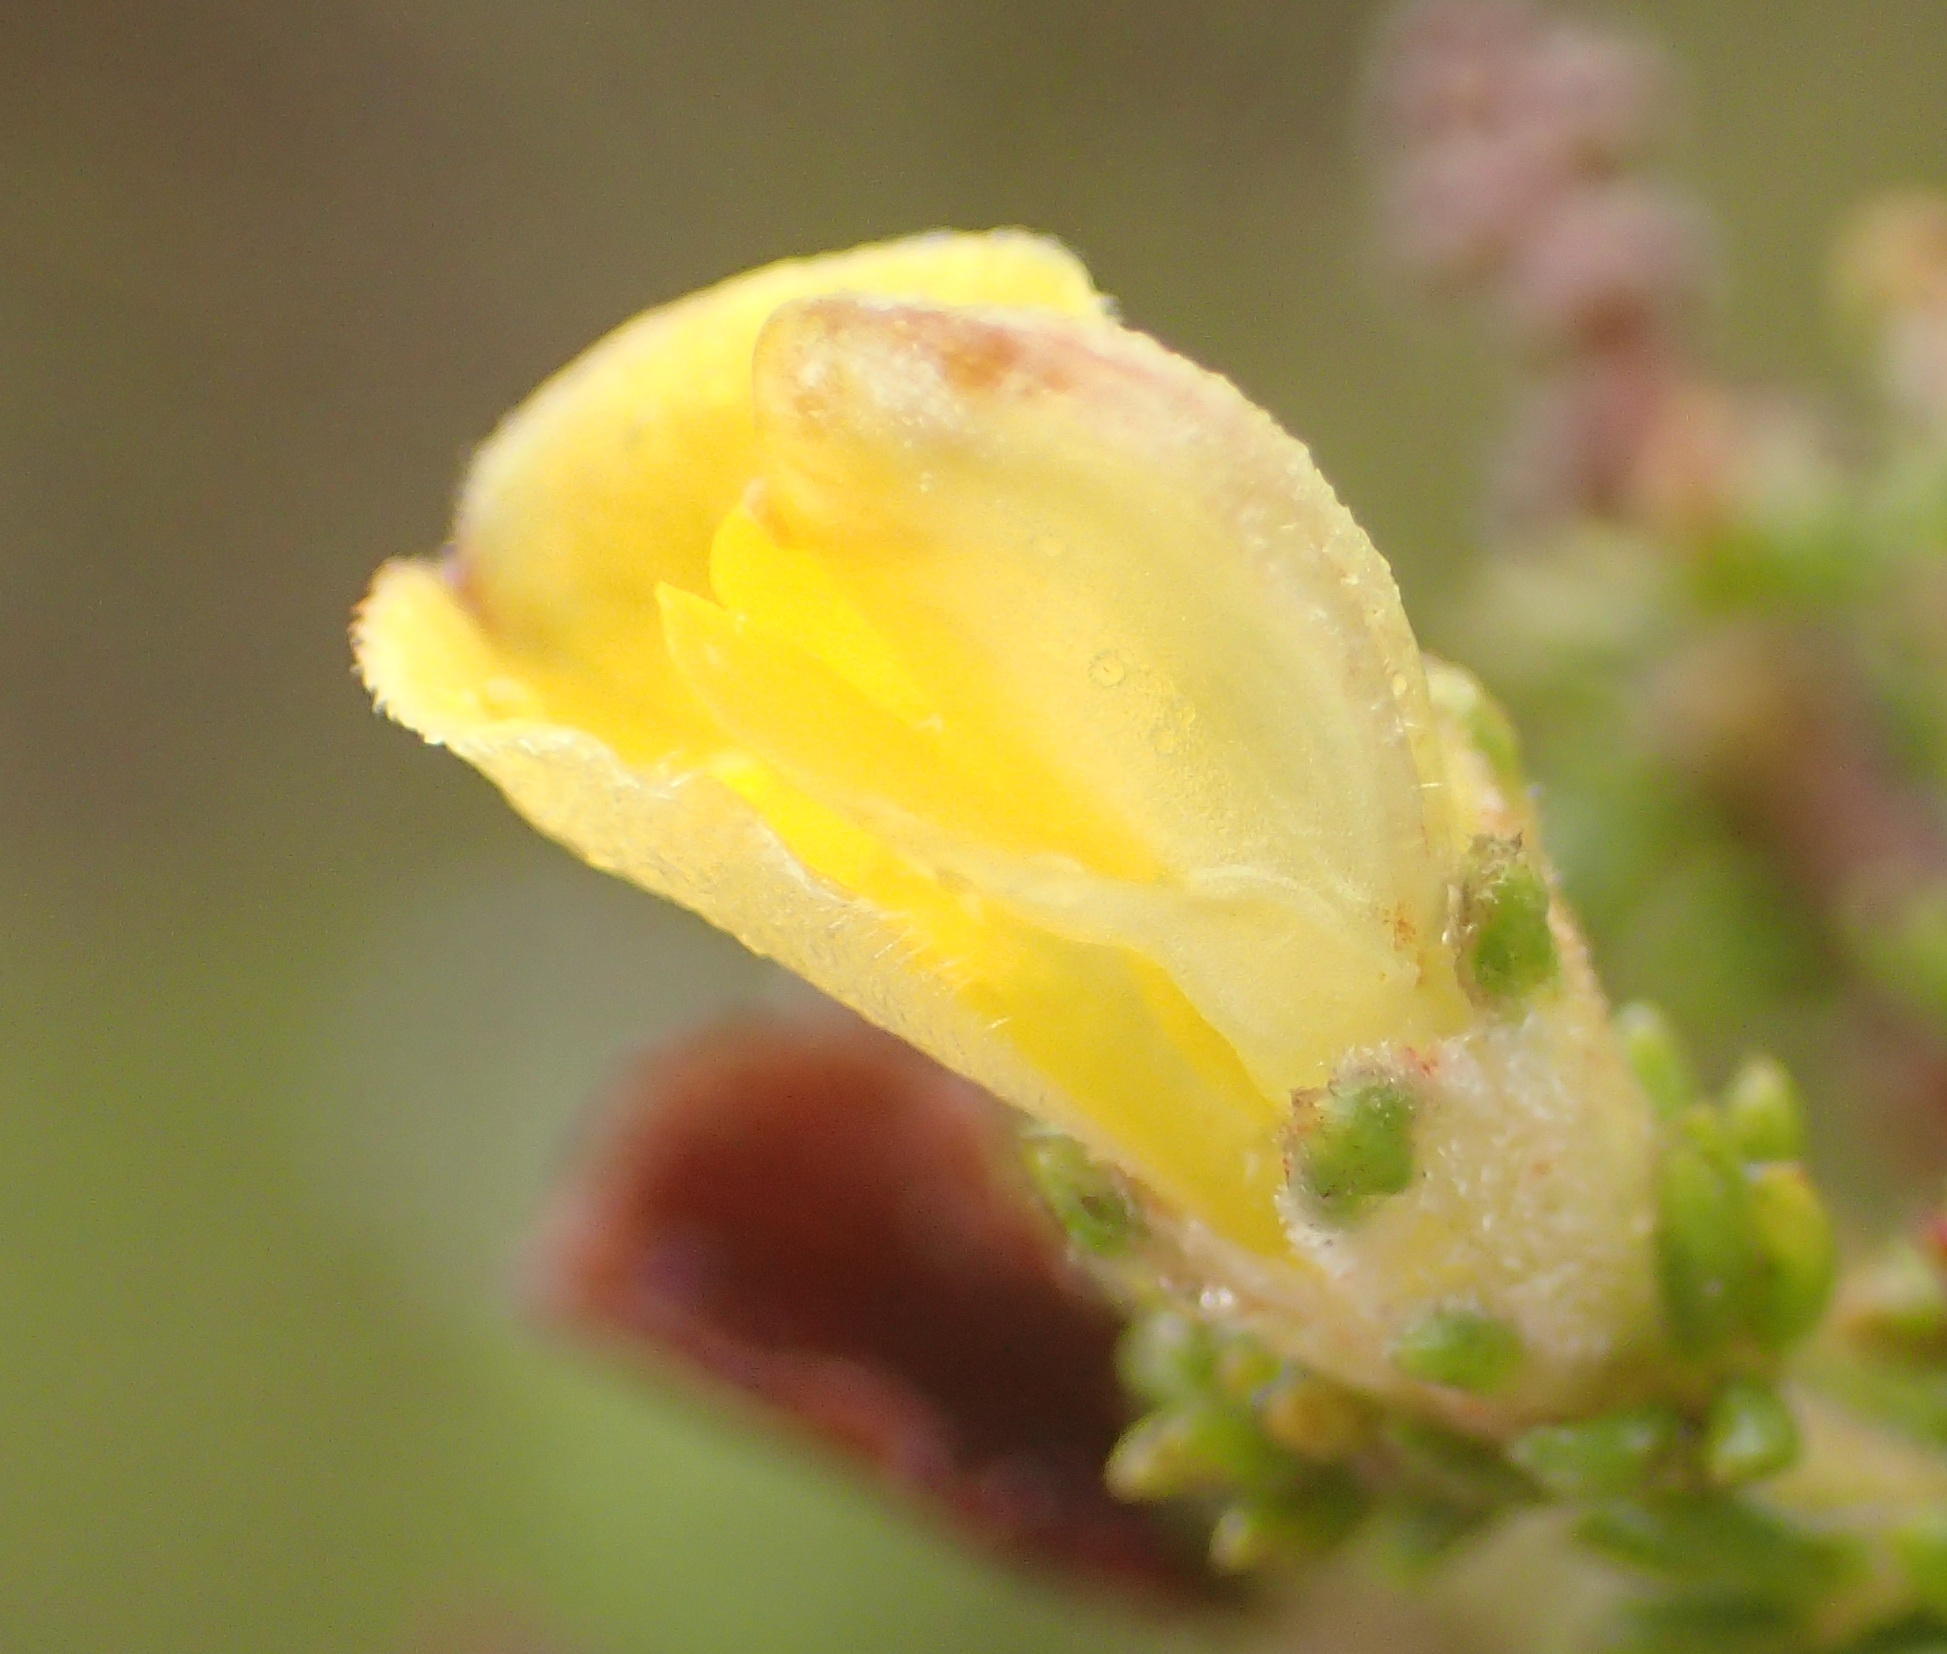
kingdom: Plantae
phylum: Tracheophyta
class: Magnoliopsida
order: Fabales
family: Fabaceae
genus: Aspalathus
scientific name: Aspalathus opaca
